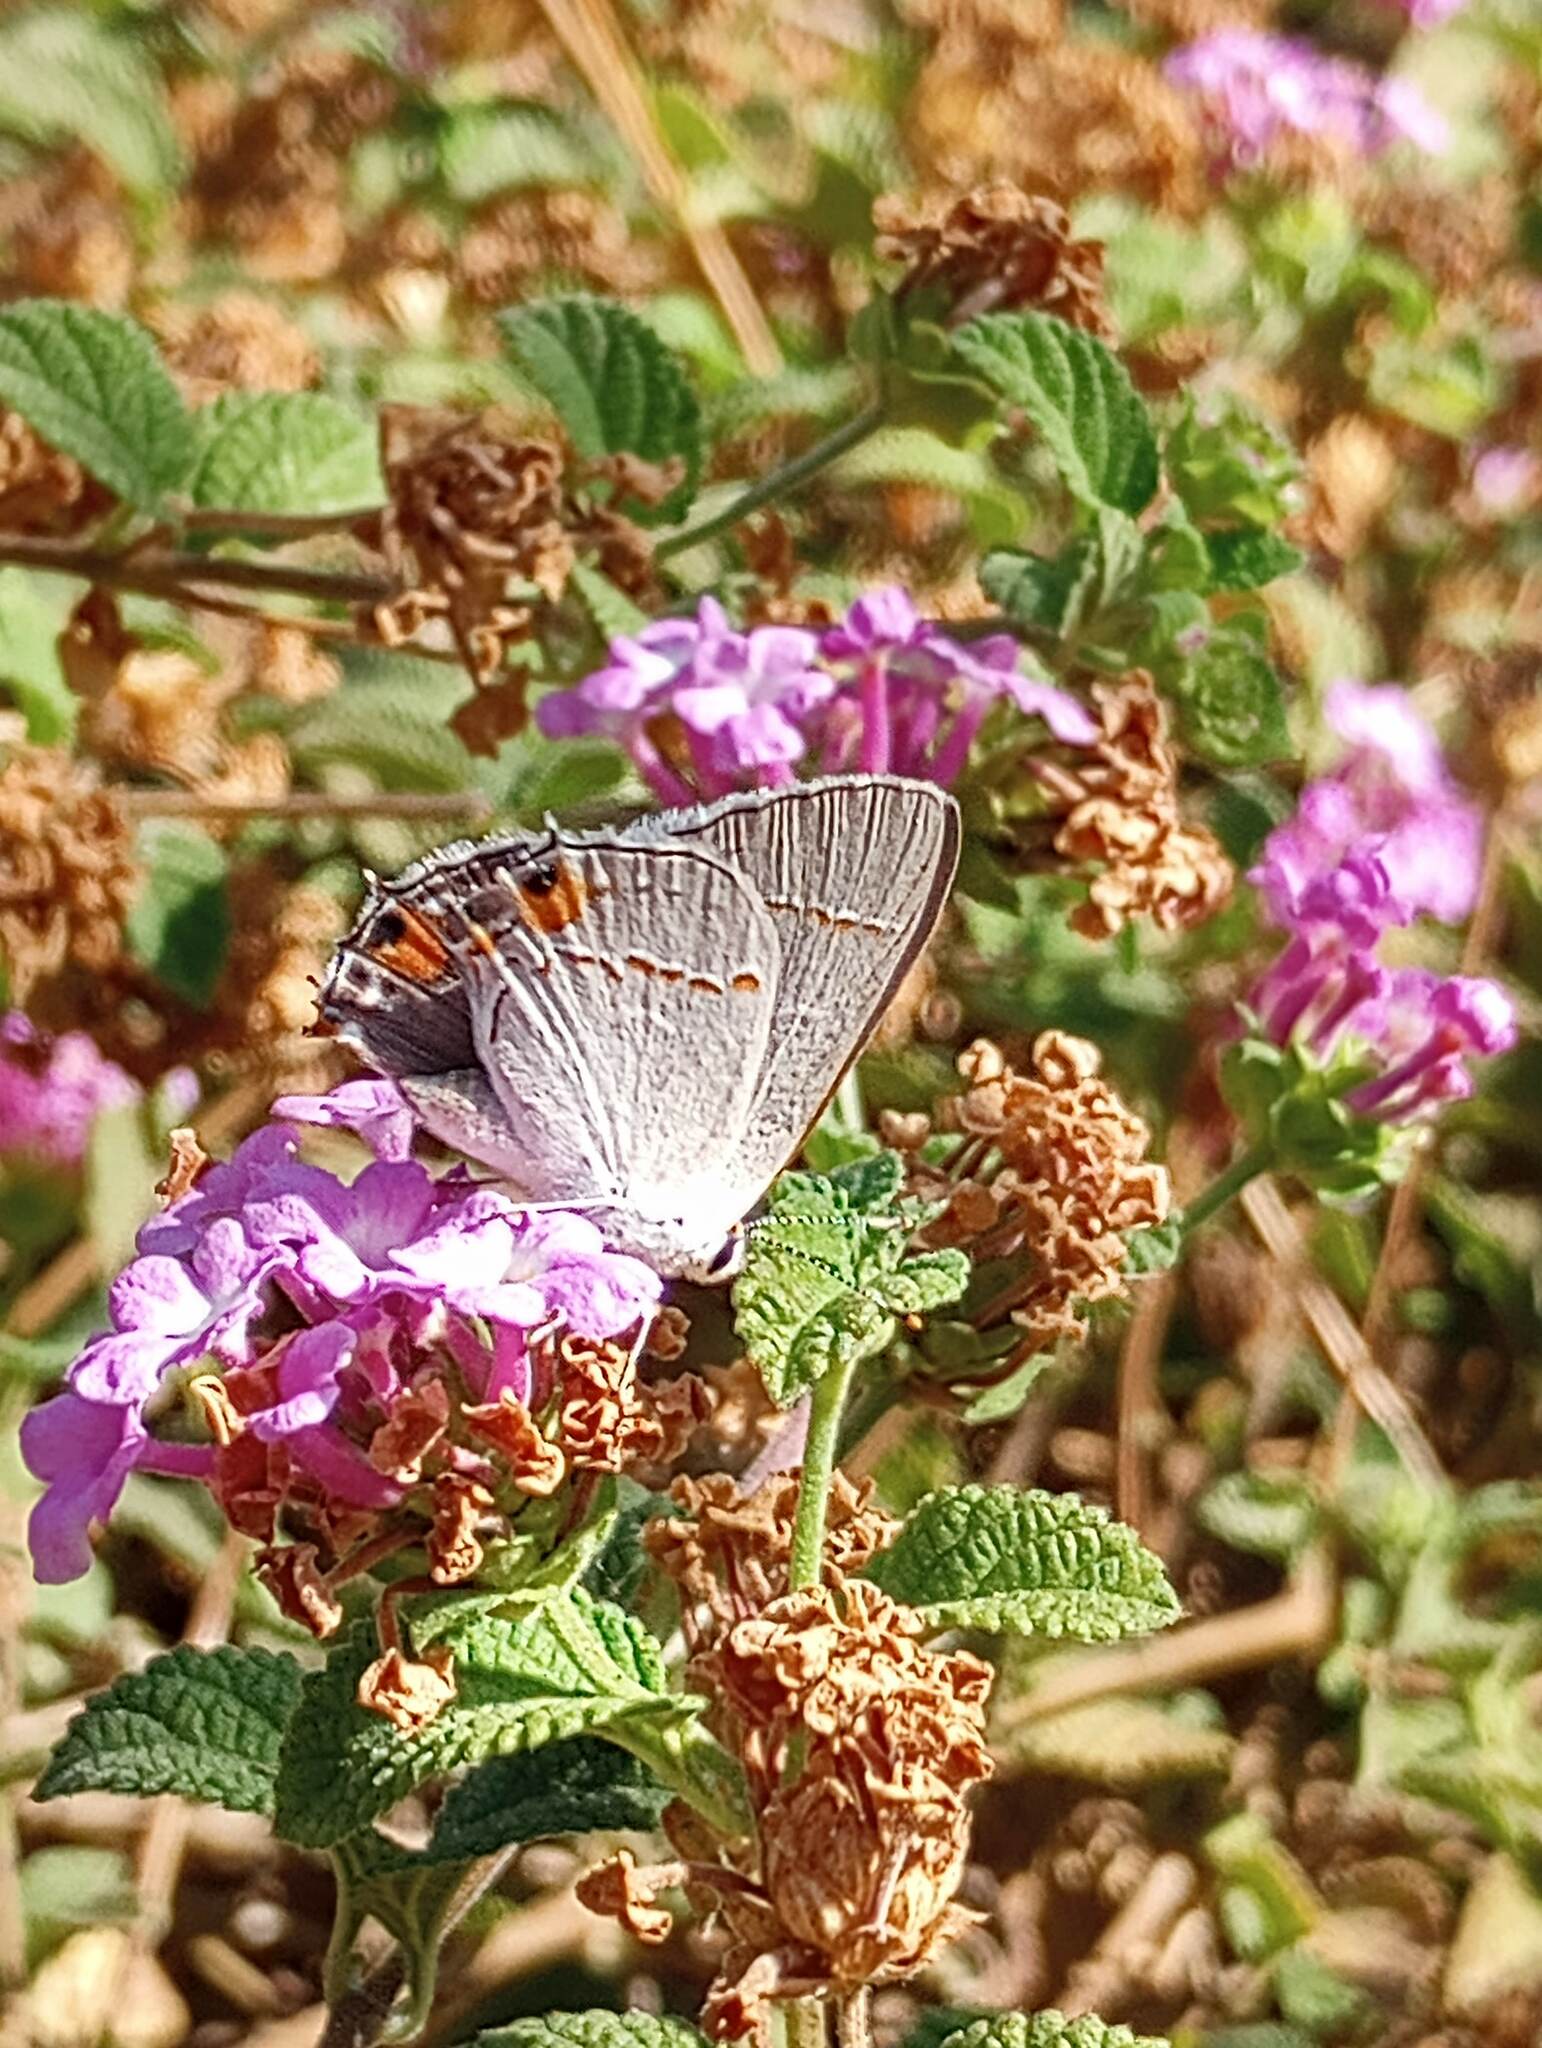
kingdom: Animalia
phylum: Arthropoda
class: Insecta
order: Lepidoptera
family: Lycaenidae
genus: Strymon
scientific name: Strymon melinus
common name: Gray hairstreak
